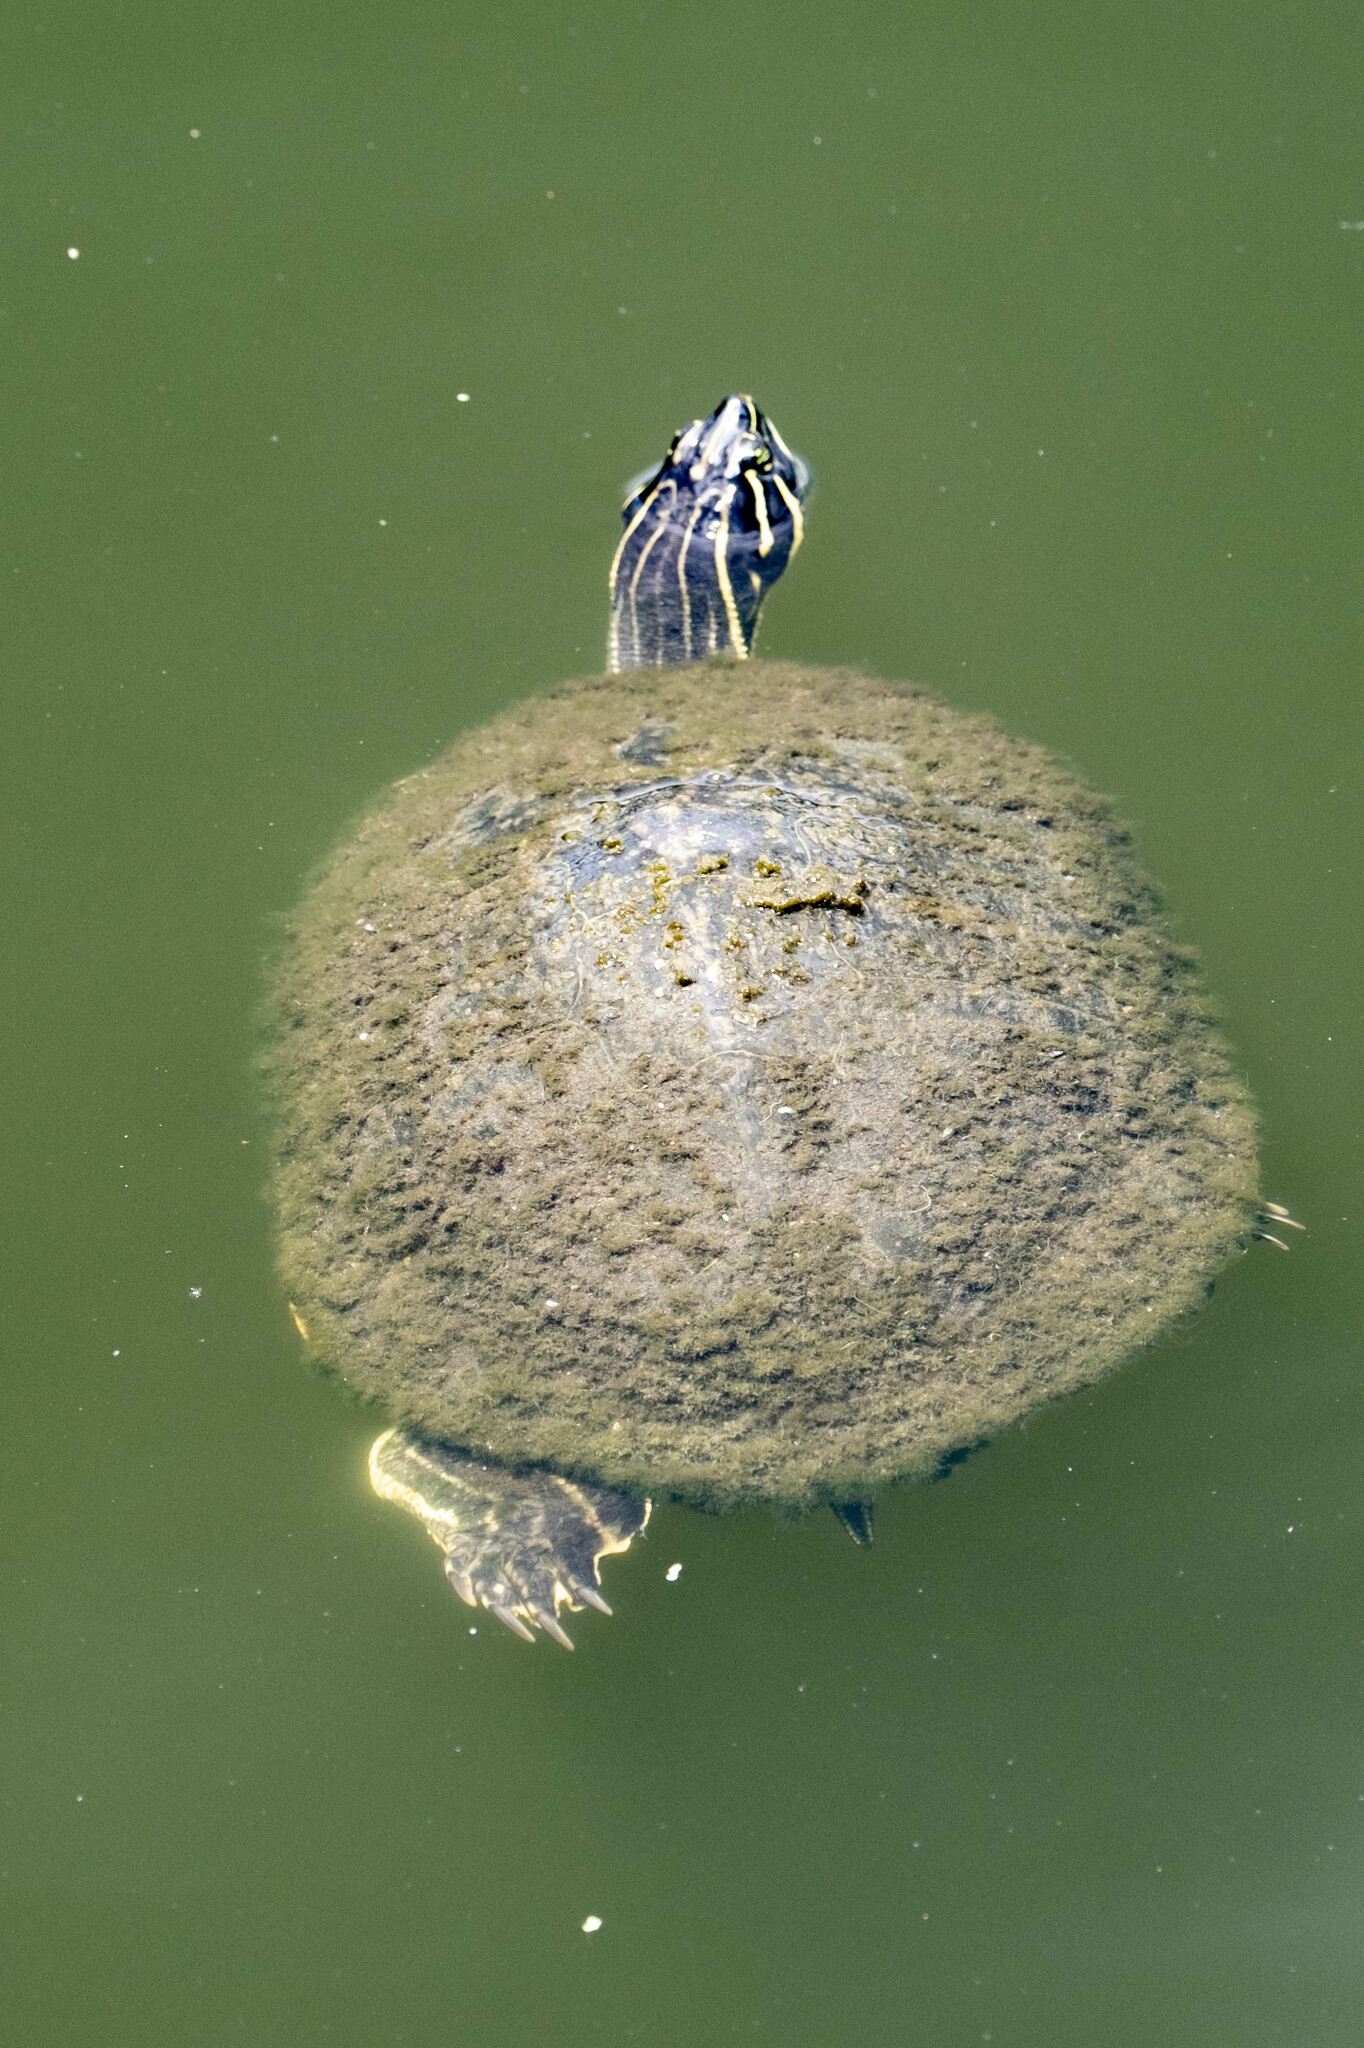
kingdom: Animalia
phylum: Chordata
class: Testudines
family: Emydidae
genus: Pseudemys
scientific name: Pseudemys peninsularis
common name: Peninsula cooter
